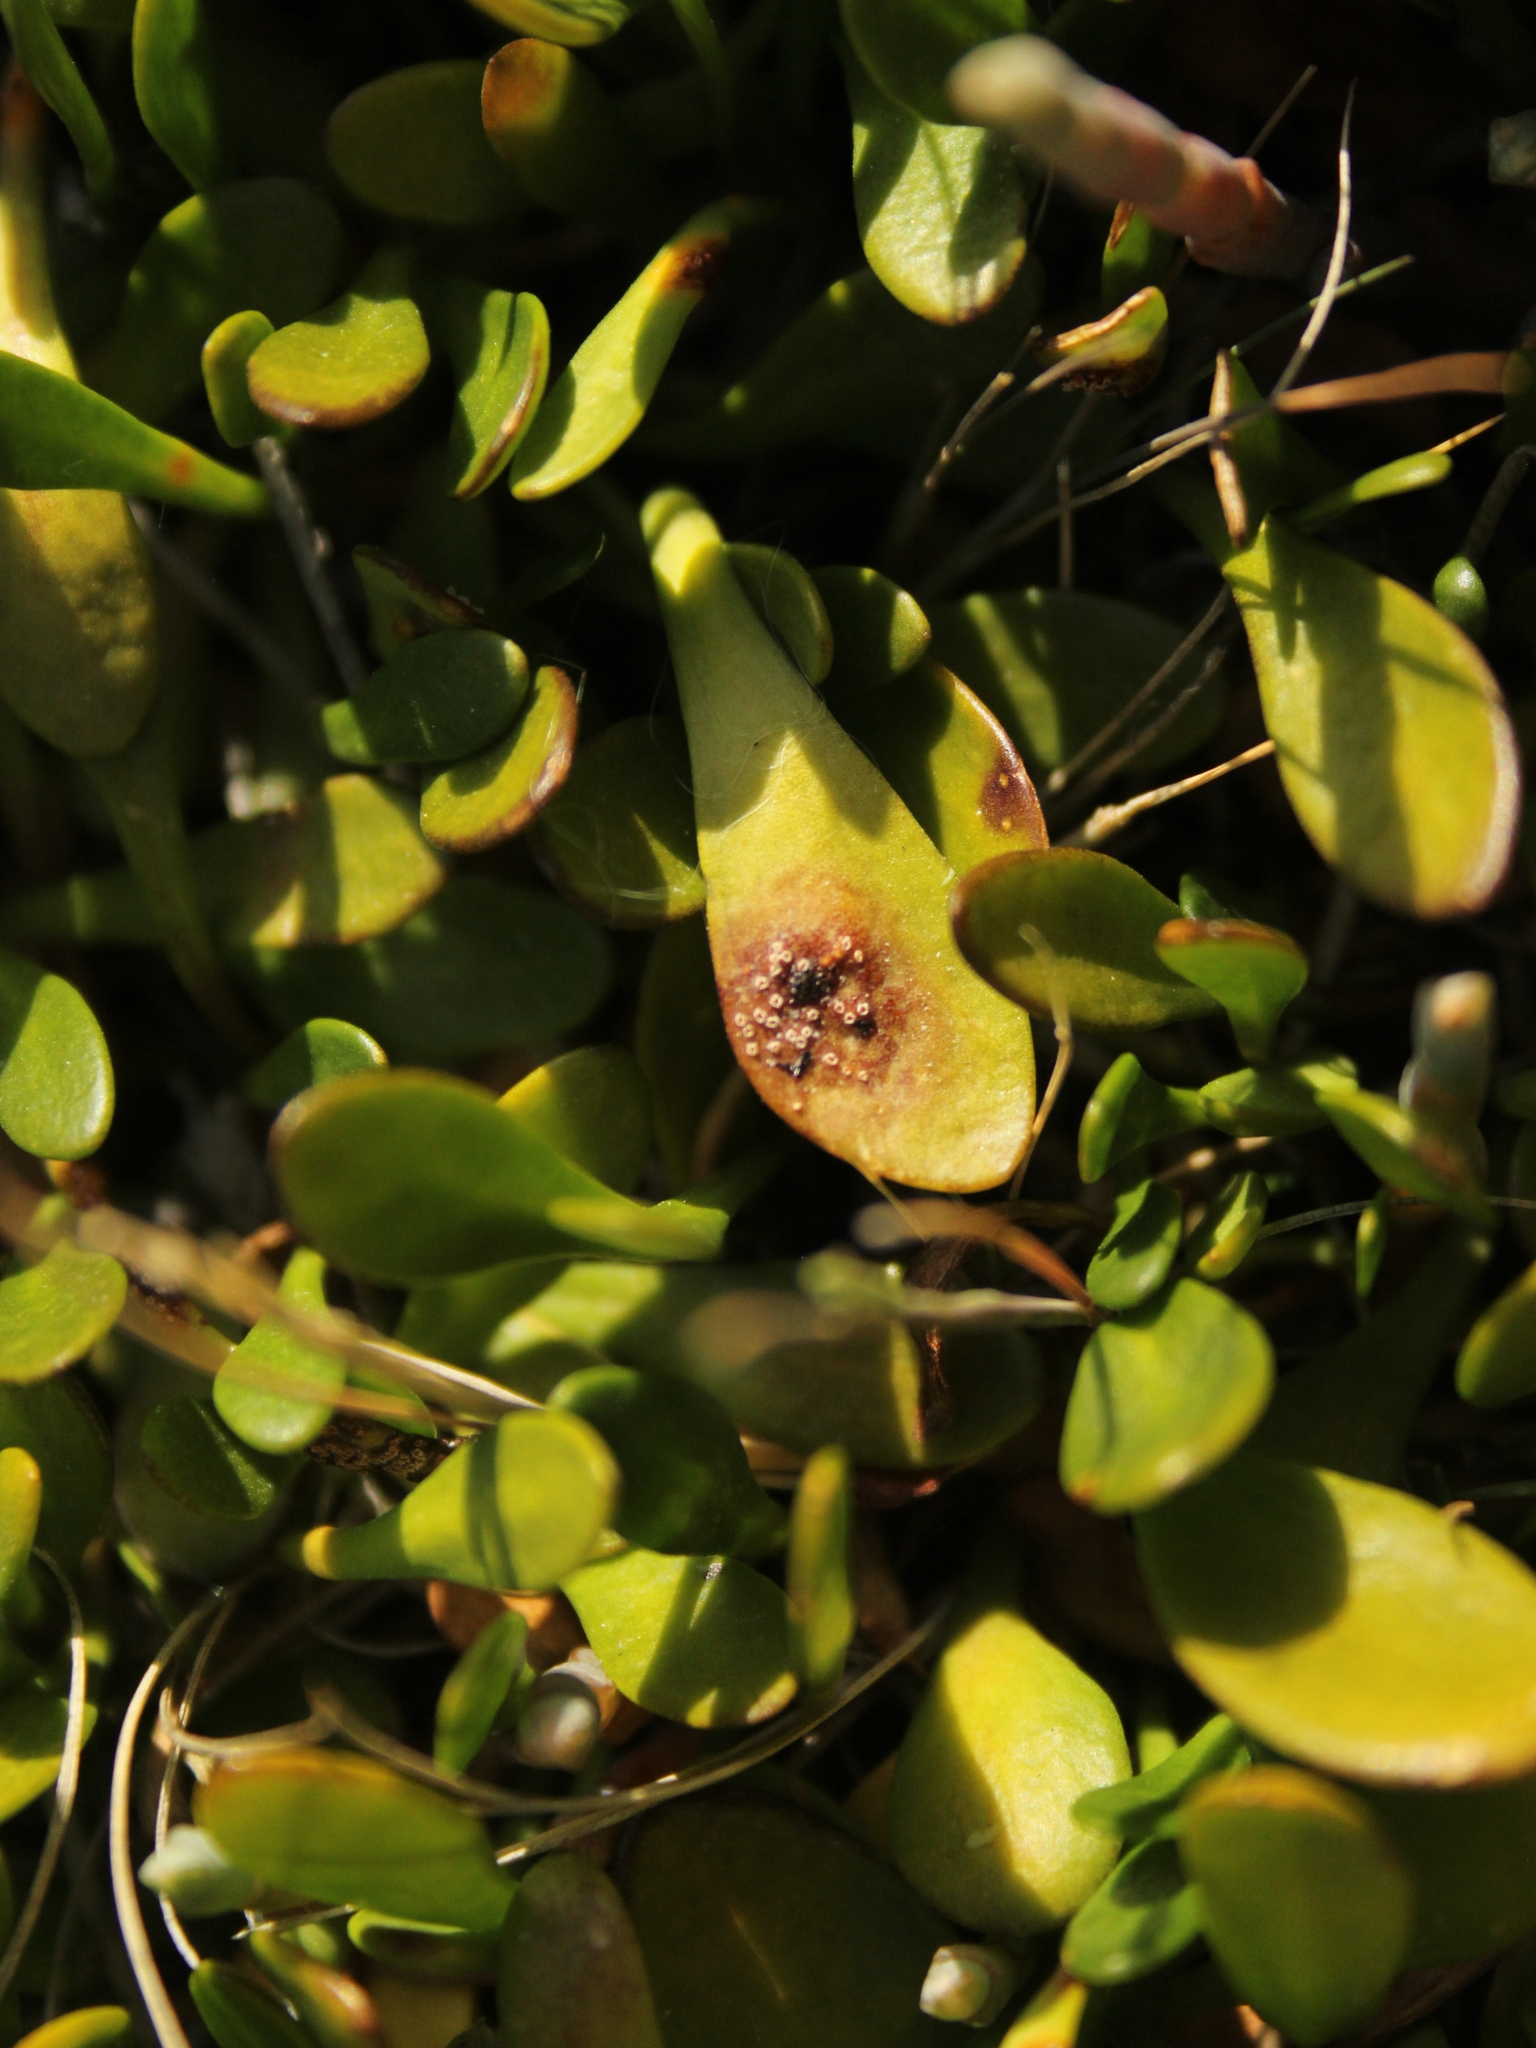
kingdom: Fungi
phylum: Basidiomycota
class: Pucciniomycetes
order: Pucciniales
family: Pucciniaceae
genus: Uromyces
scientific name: Uromyces sellierae
